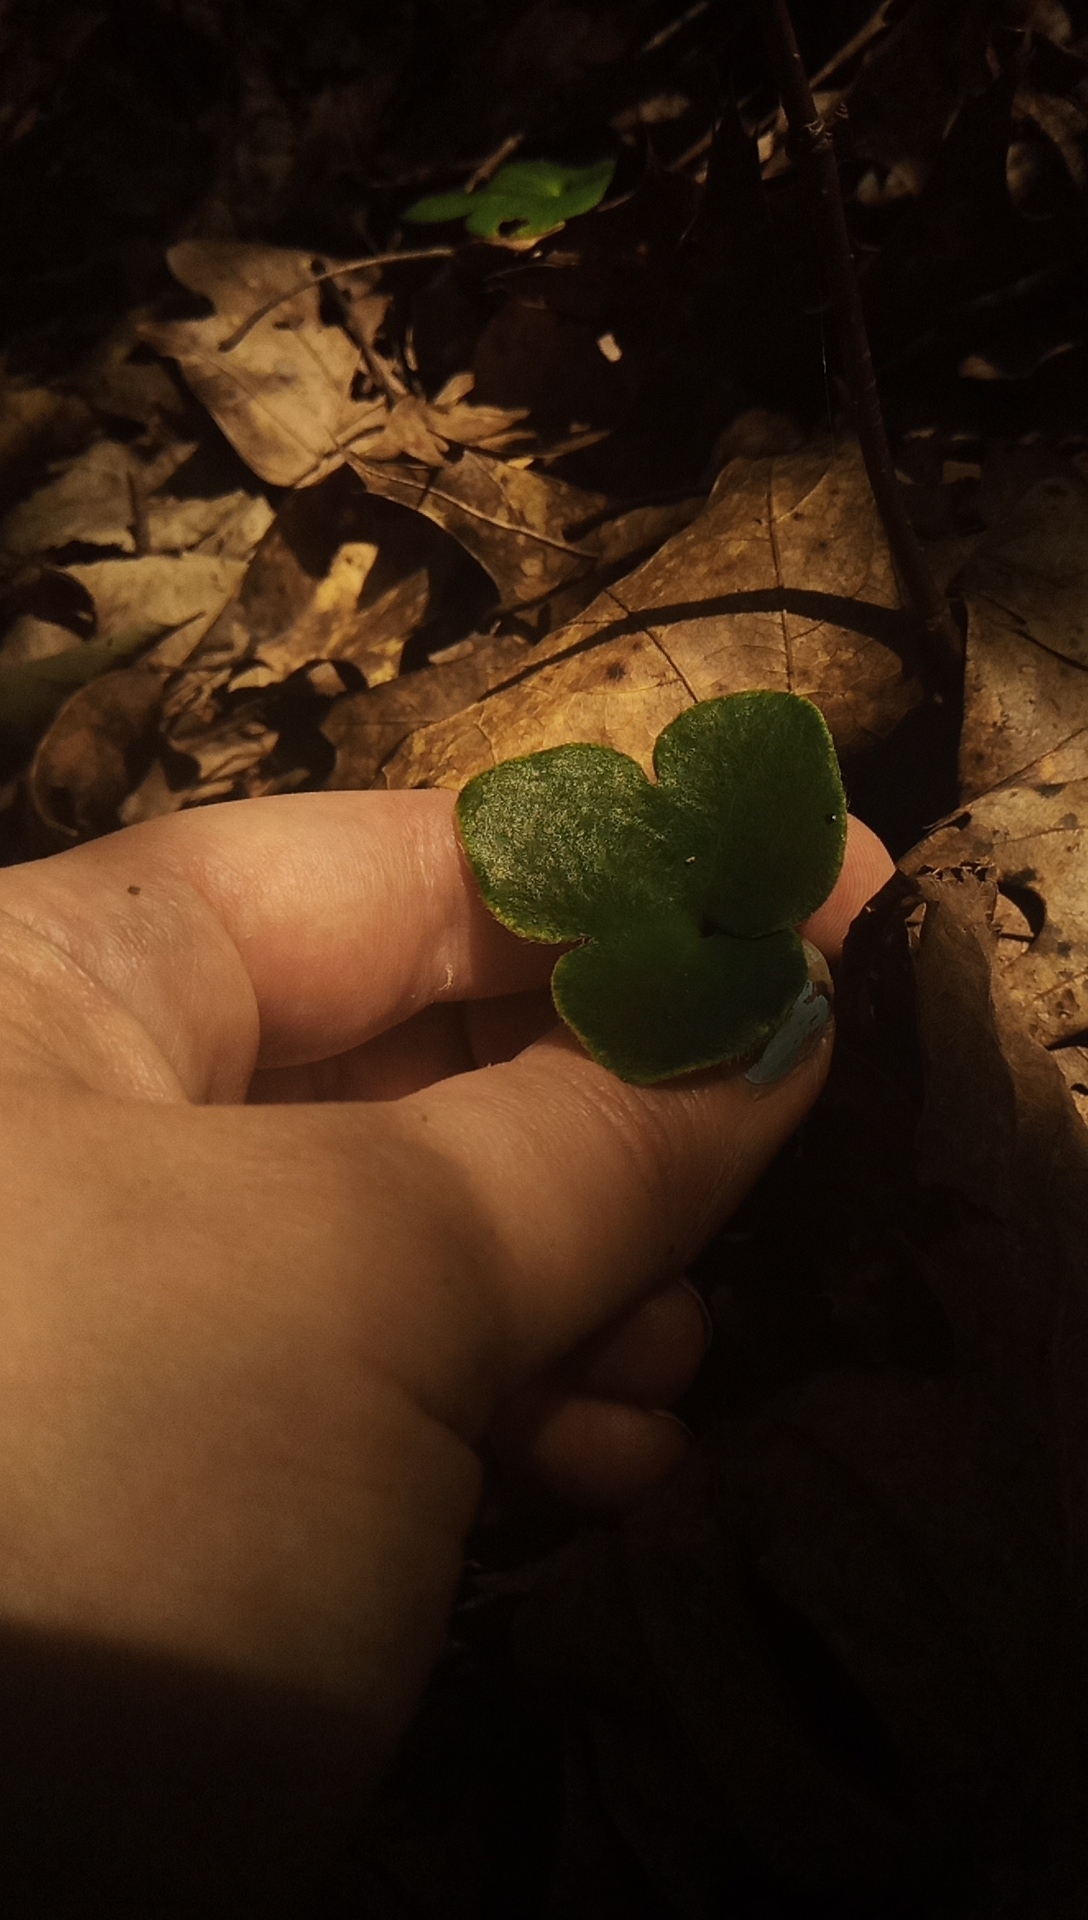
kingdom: Plantae
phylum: Tracheophyta
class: Magnoliopsida
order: Ranunculales
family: Ranunculaceae
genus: Hepatica
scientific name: Hepatica americana
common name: American hepatica
